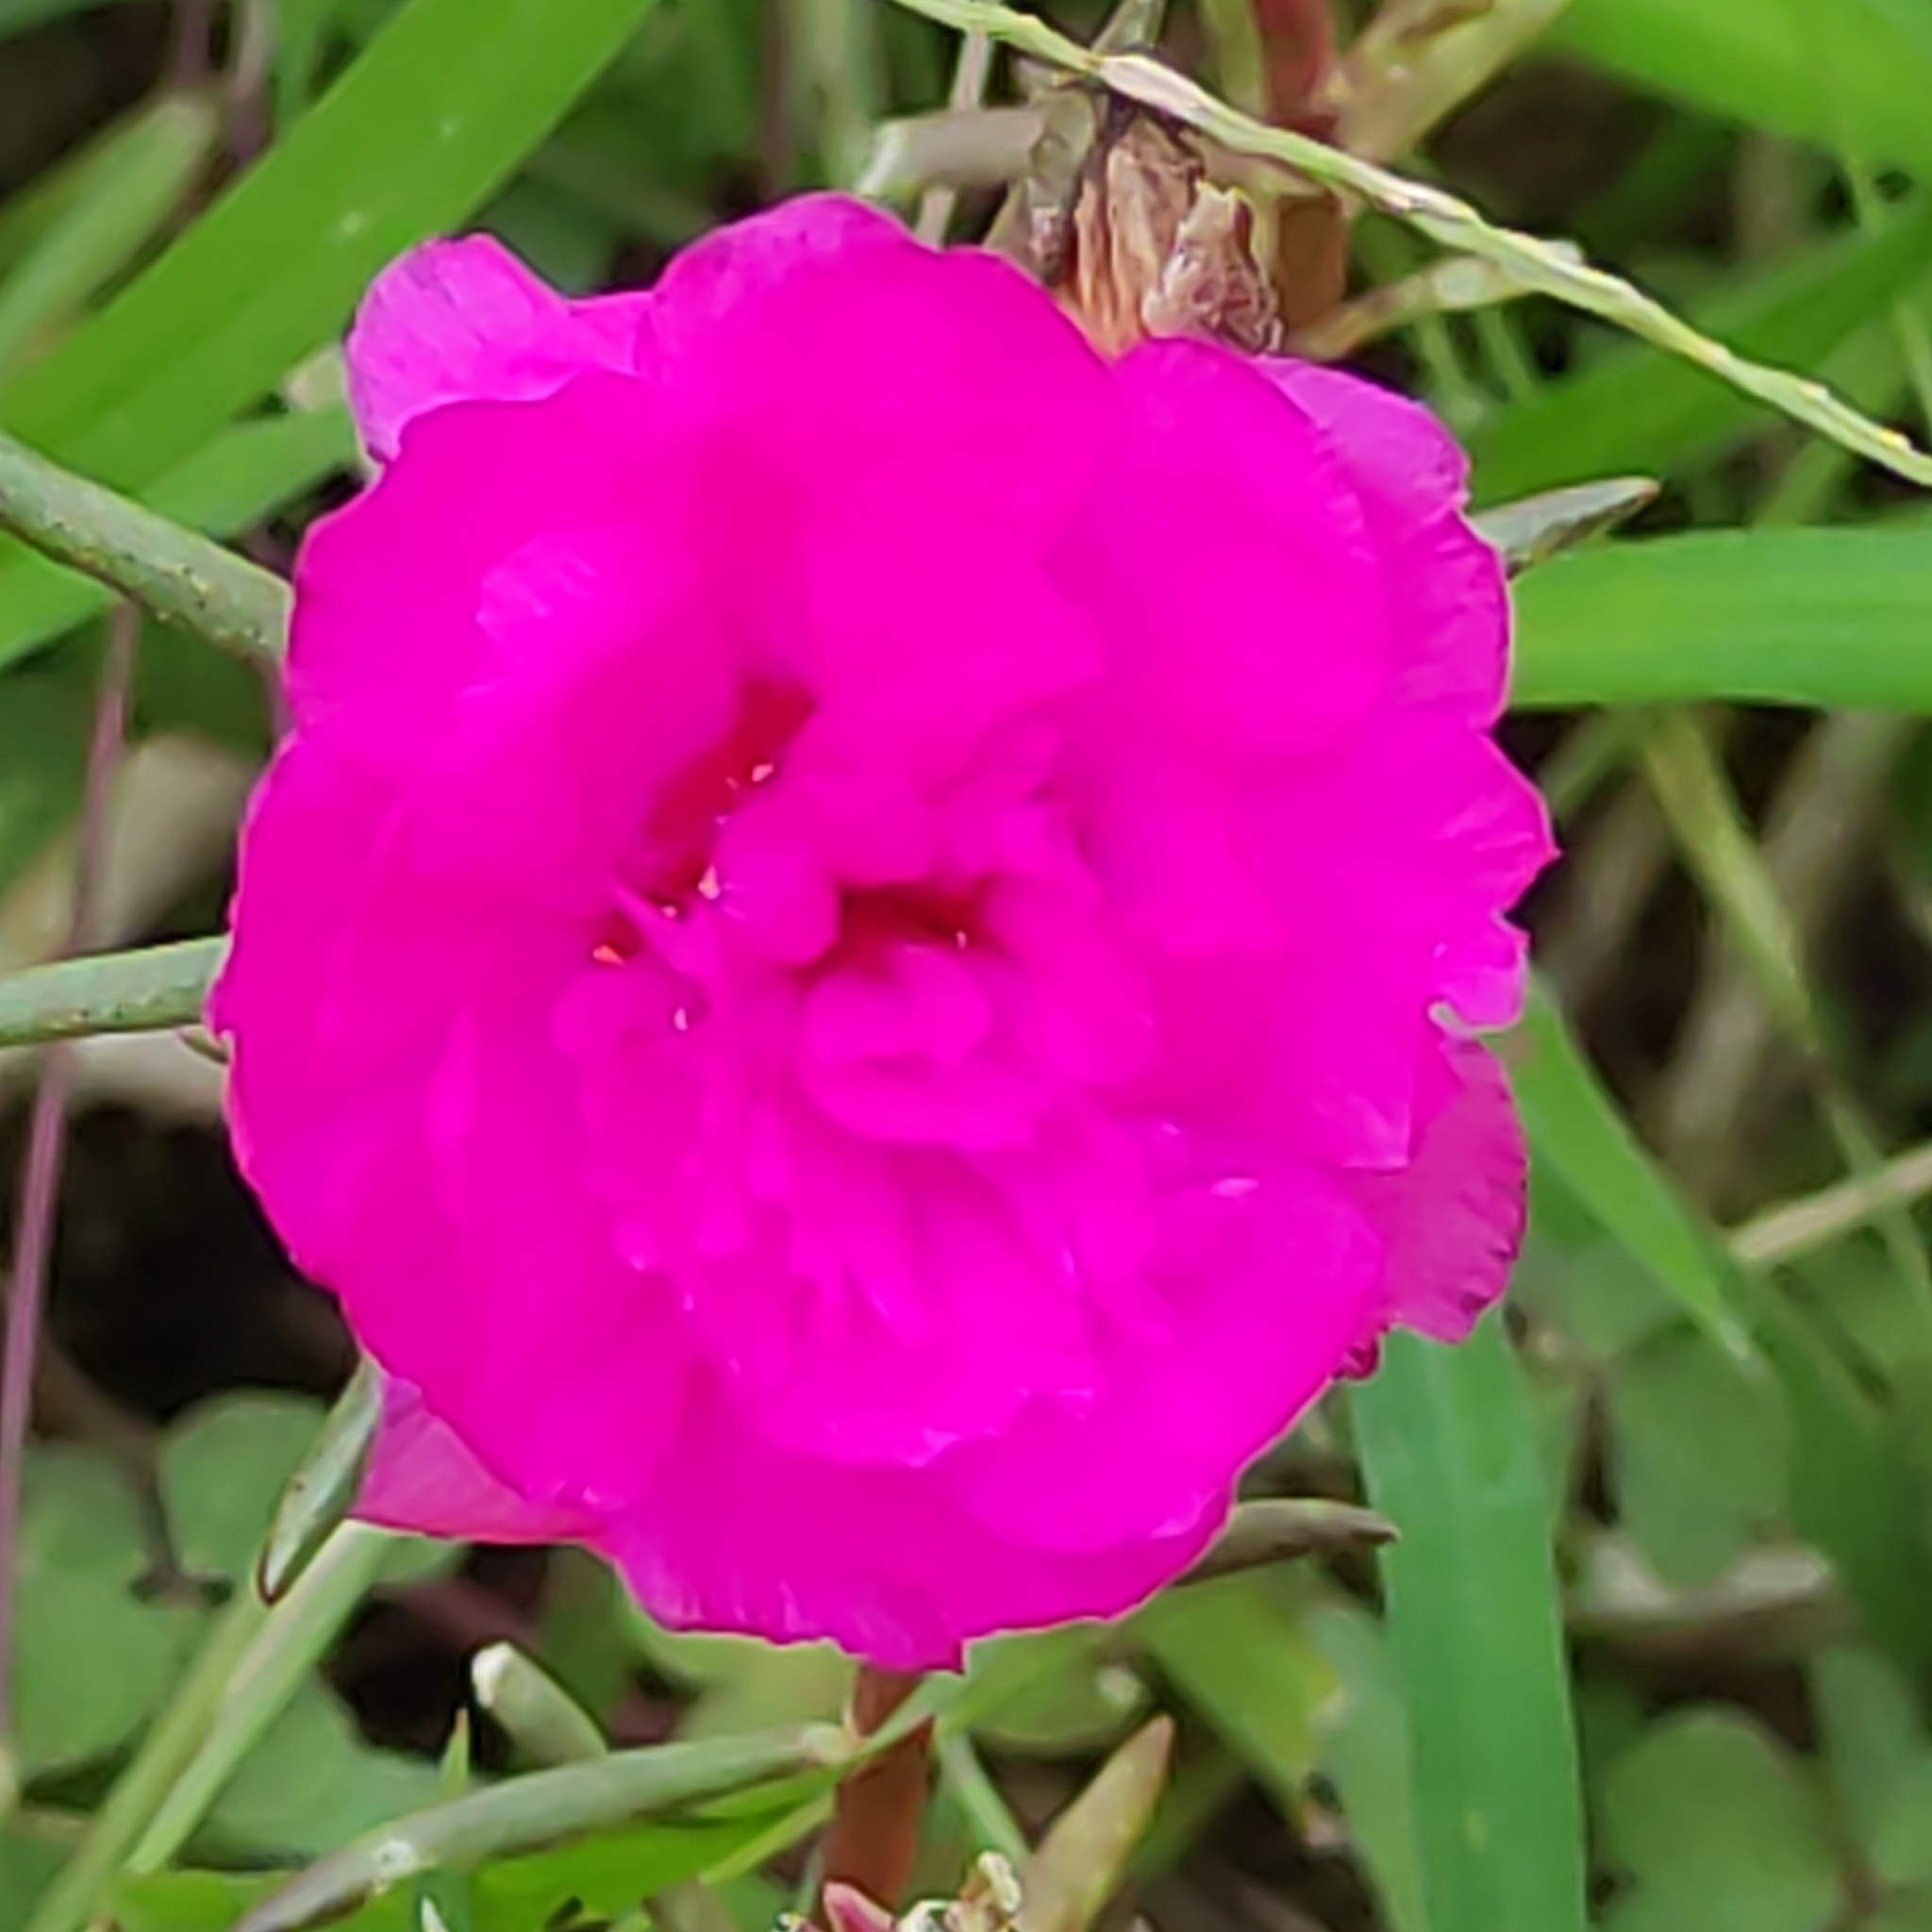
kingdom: Plantae
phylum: Tracheophyta
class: Magnoliopsida
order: Caryophyllales
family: Portulacaceae
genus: Portulaca
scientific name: Portulaca grandiflora
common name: Moss-rose
